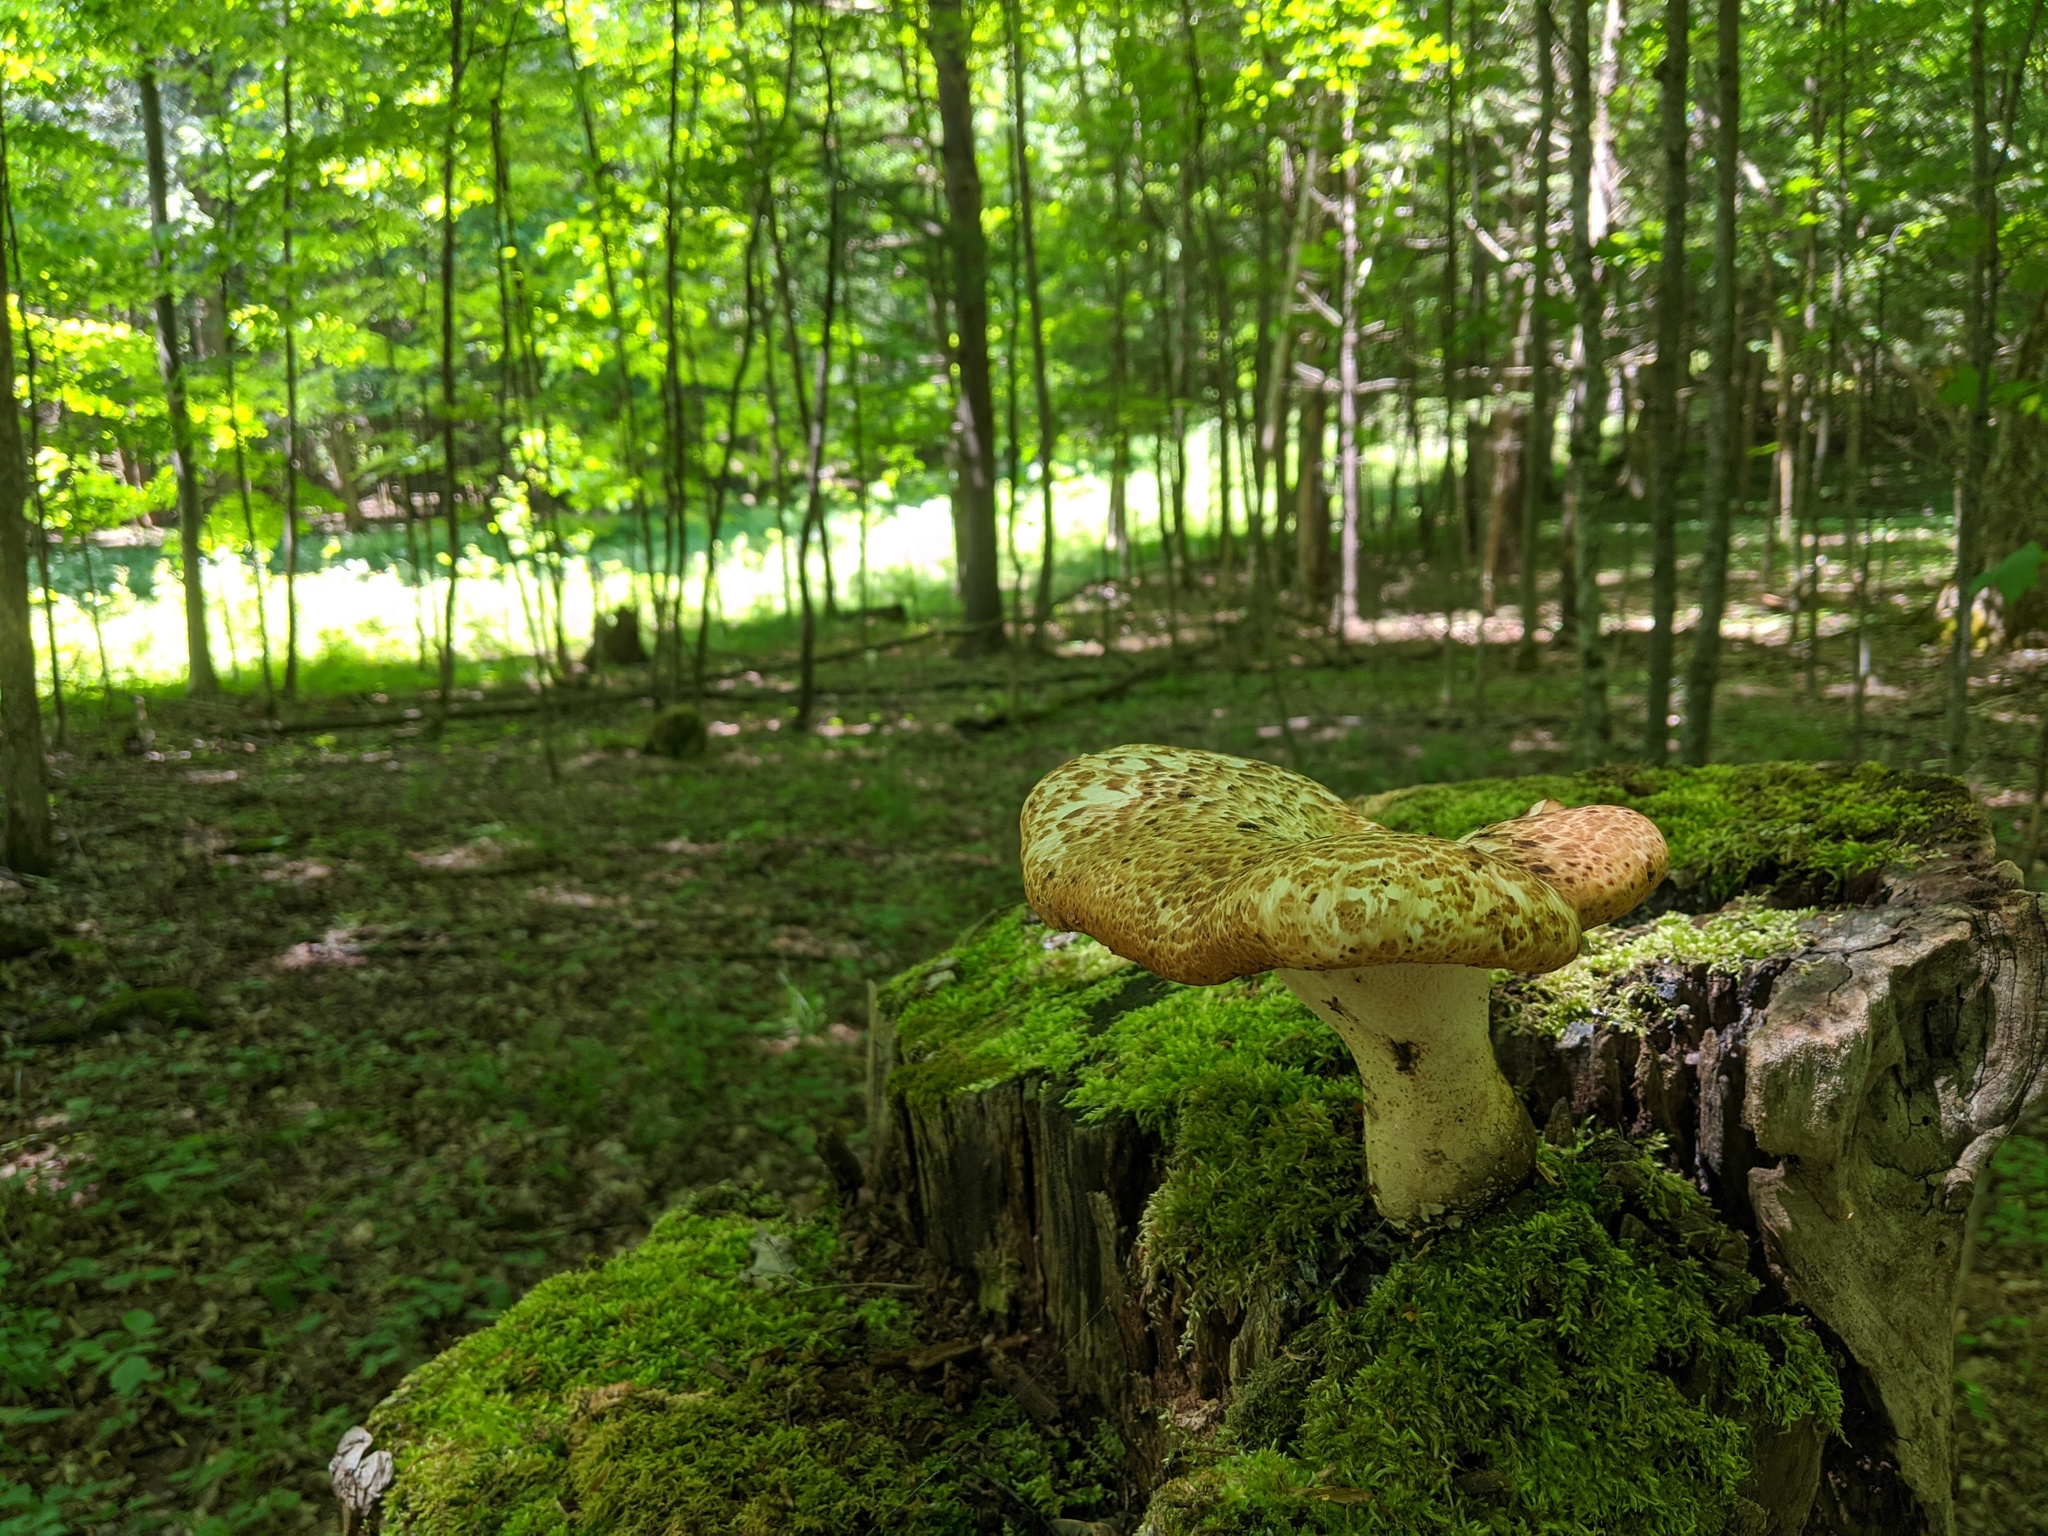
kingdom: Fungi
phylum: Basidiomycota
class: Agaricomycetes
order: Polyporales
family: Polyporaceae
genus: Cerioporus
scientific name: Cerioporus squamosus
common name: Dryad's saddle
